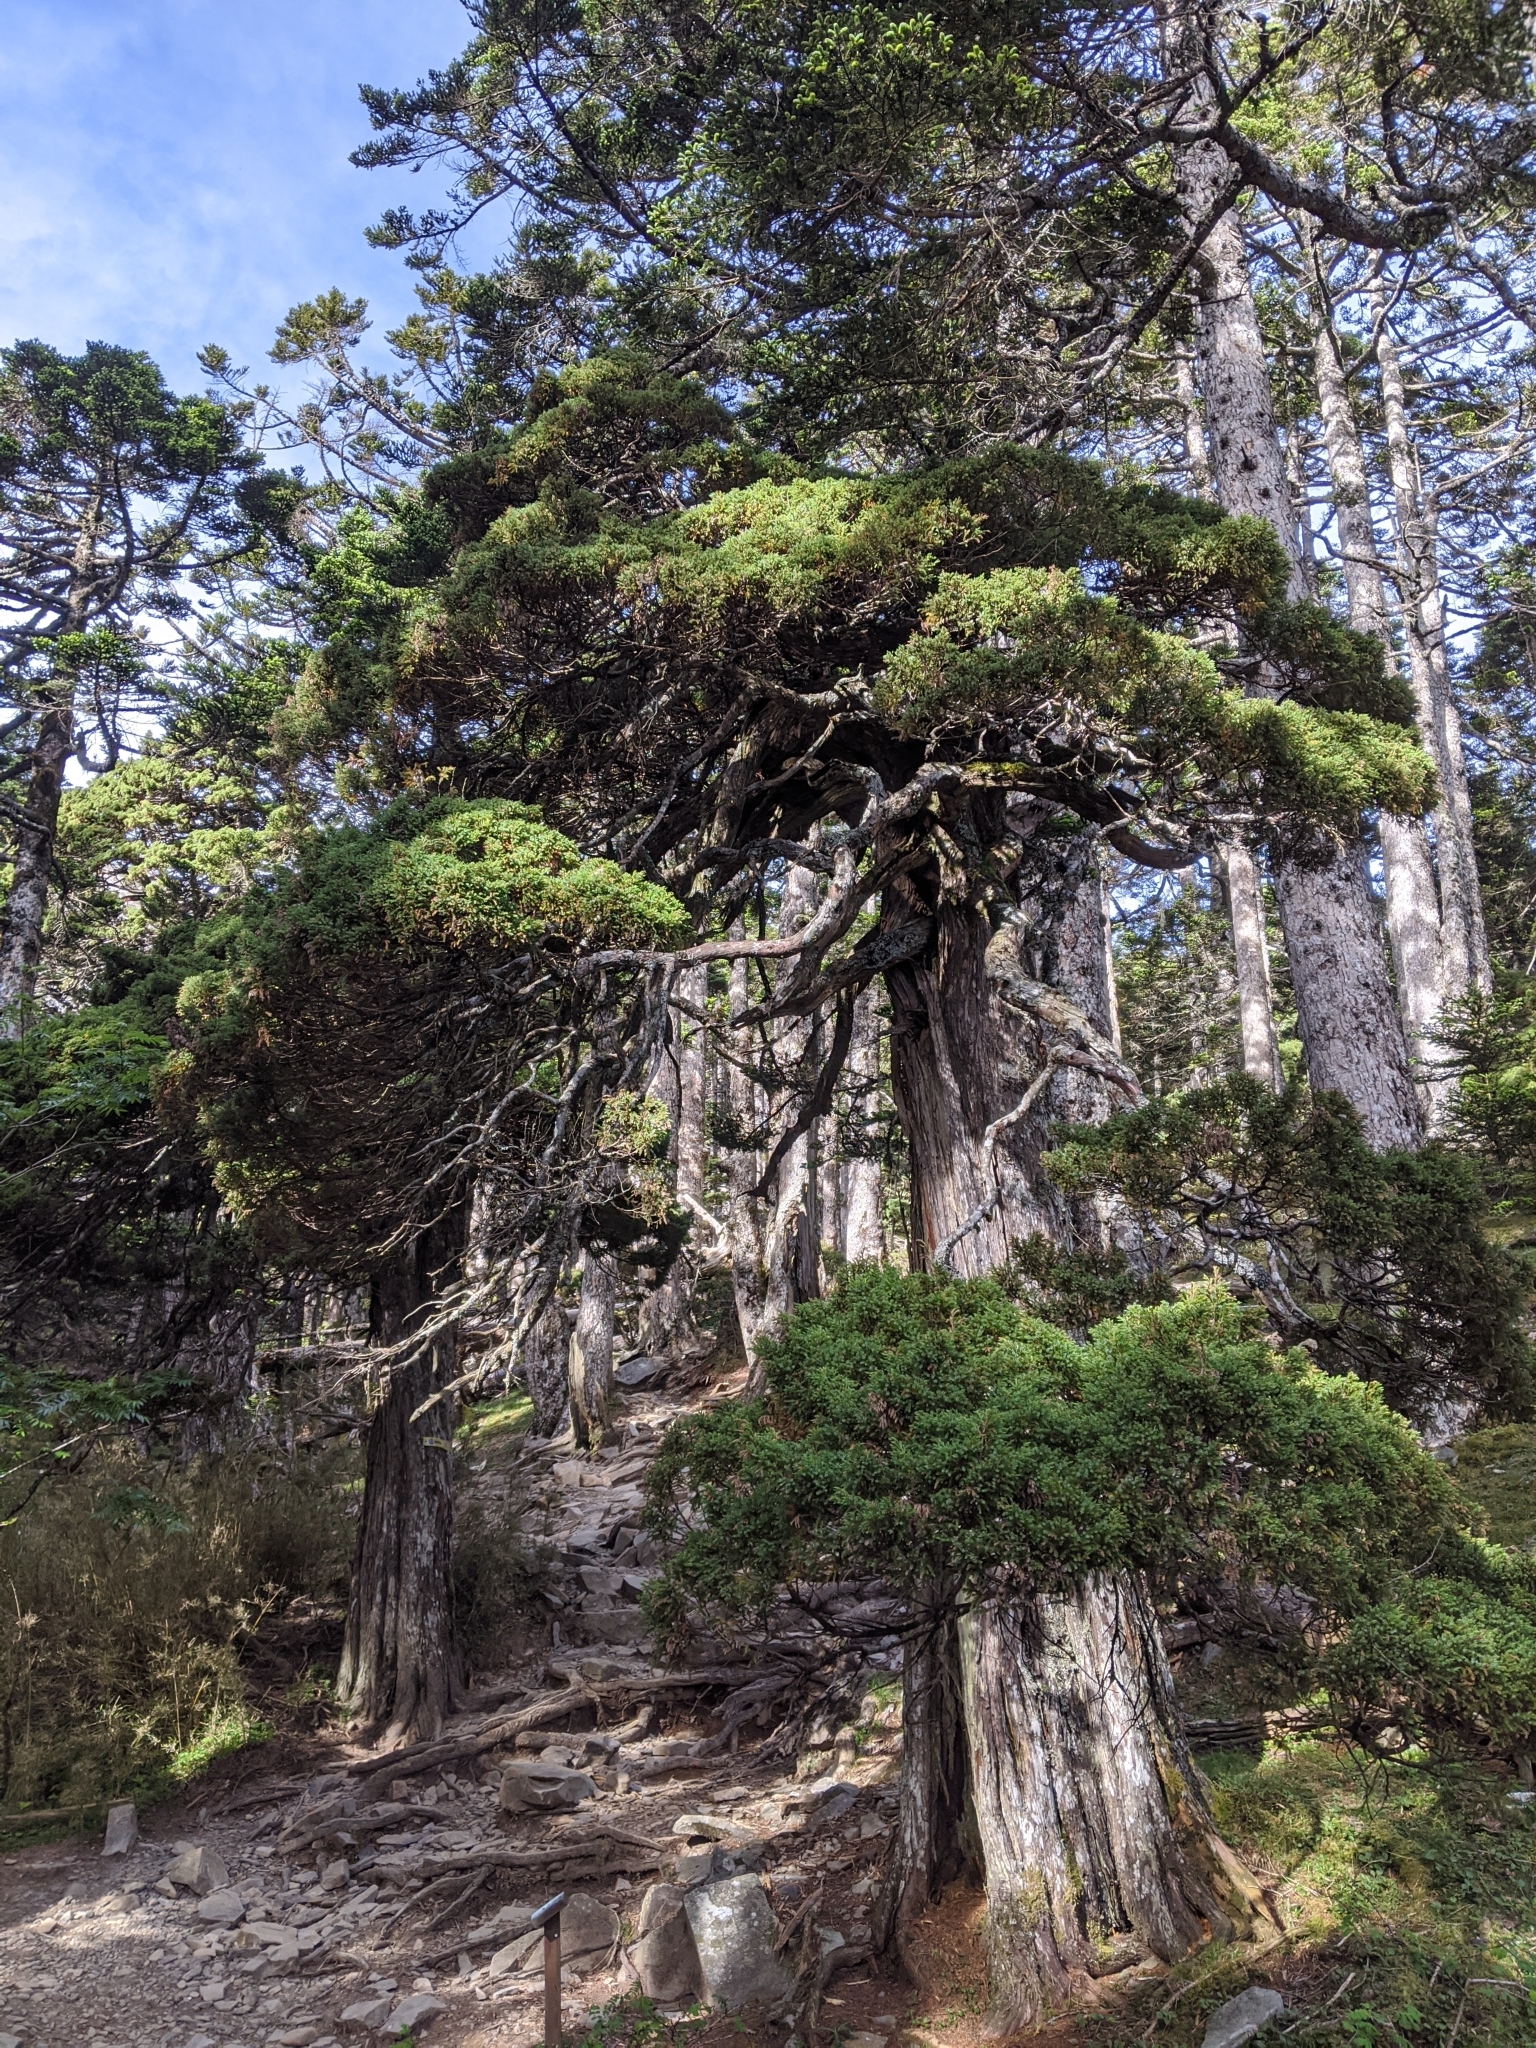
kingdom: Plantae
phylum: Tracheophyta
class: Pinopsida
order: Pinales
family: Cupressaceae
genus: Juniperus
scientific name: Juniperus squamata
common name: Flaky juniper
